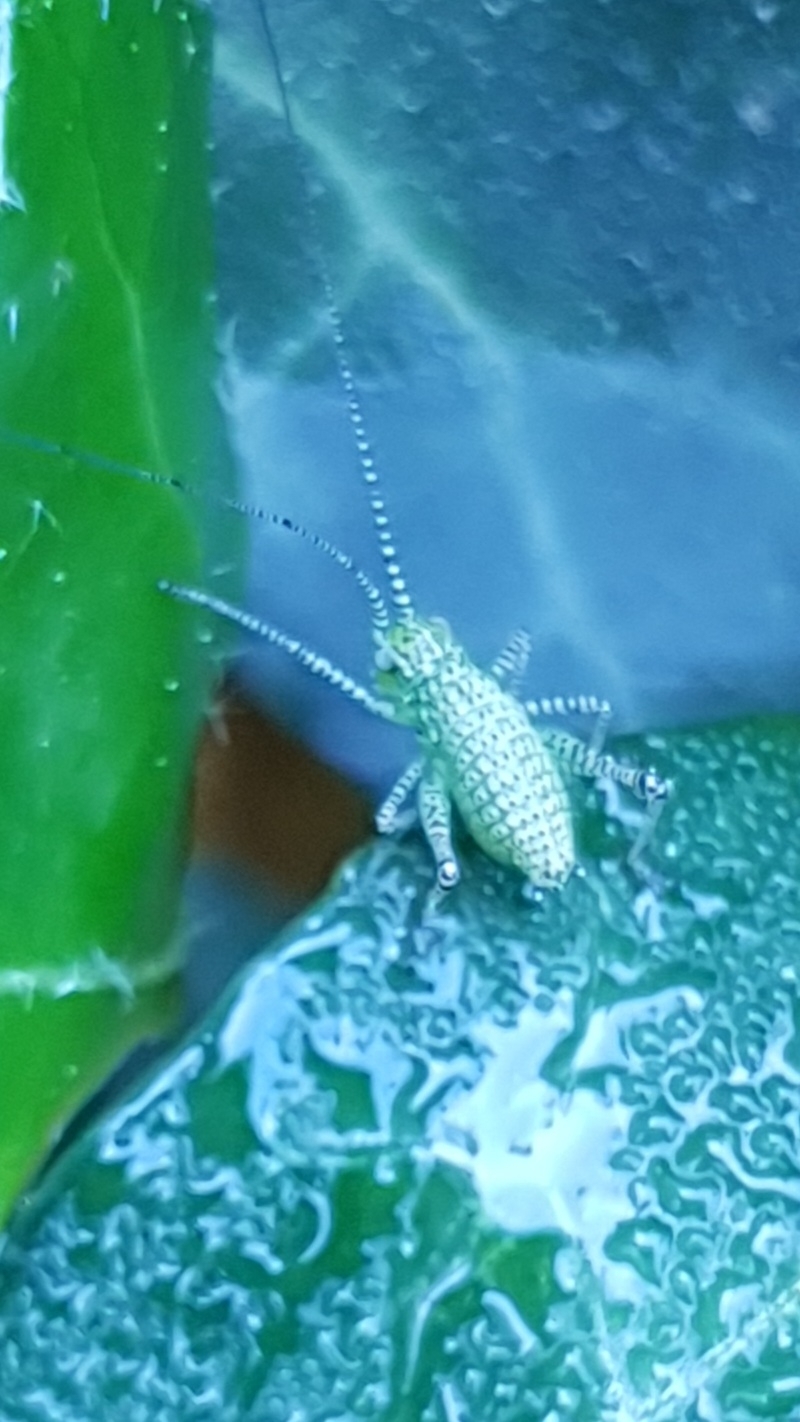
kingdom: Animalia
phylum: Arthropoda
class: Insecta
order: Orthoptera
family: Tettigoniidae
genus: Leptophyes
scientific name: Leptophyes punctatissima
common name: Speckled bush-cricket
